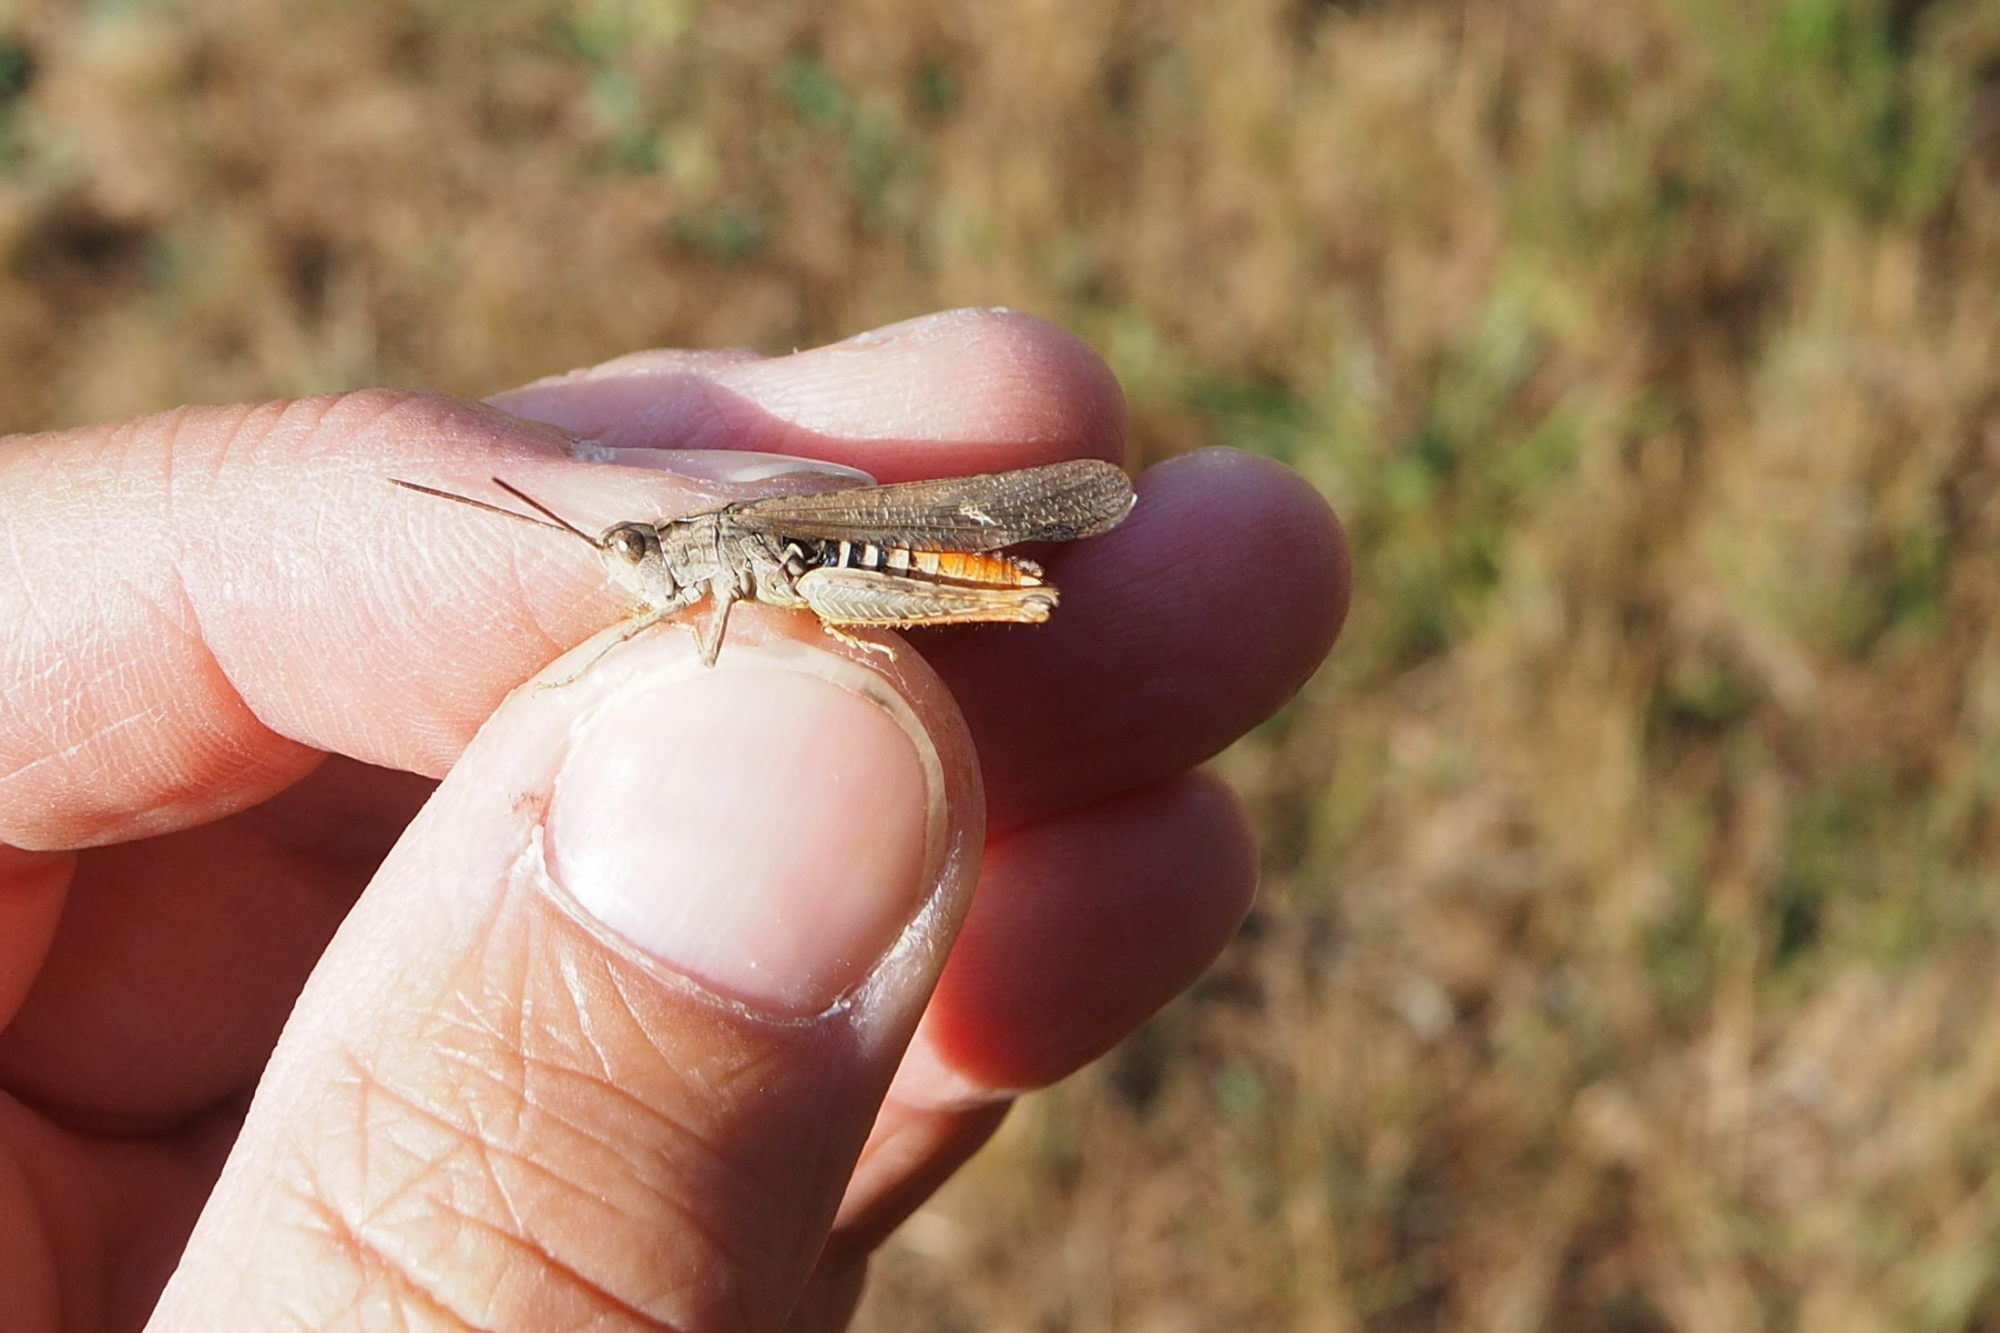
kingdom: Animalia
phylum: Arthropoda
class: Insecta
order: Orthoptera
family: Acrididae
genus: Chorthippus
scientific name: Chorthippus brunneus
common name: Field grasshopper
